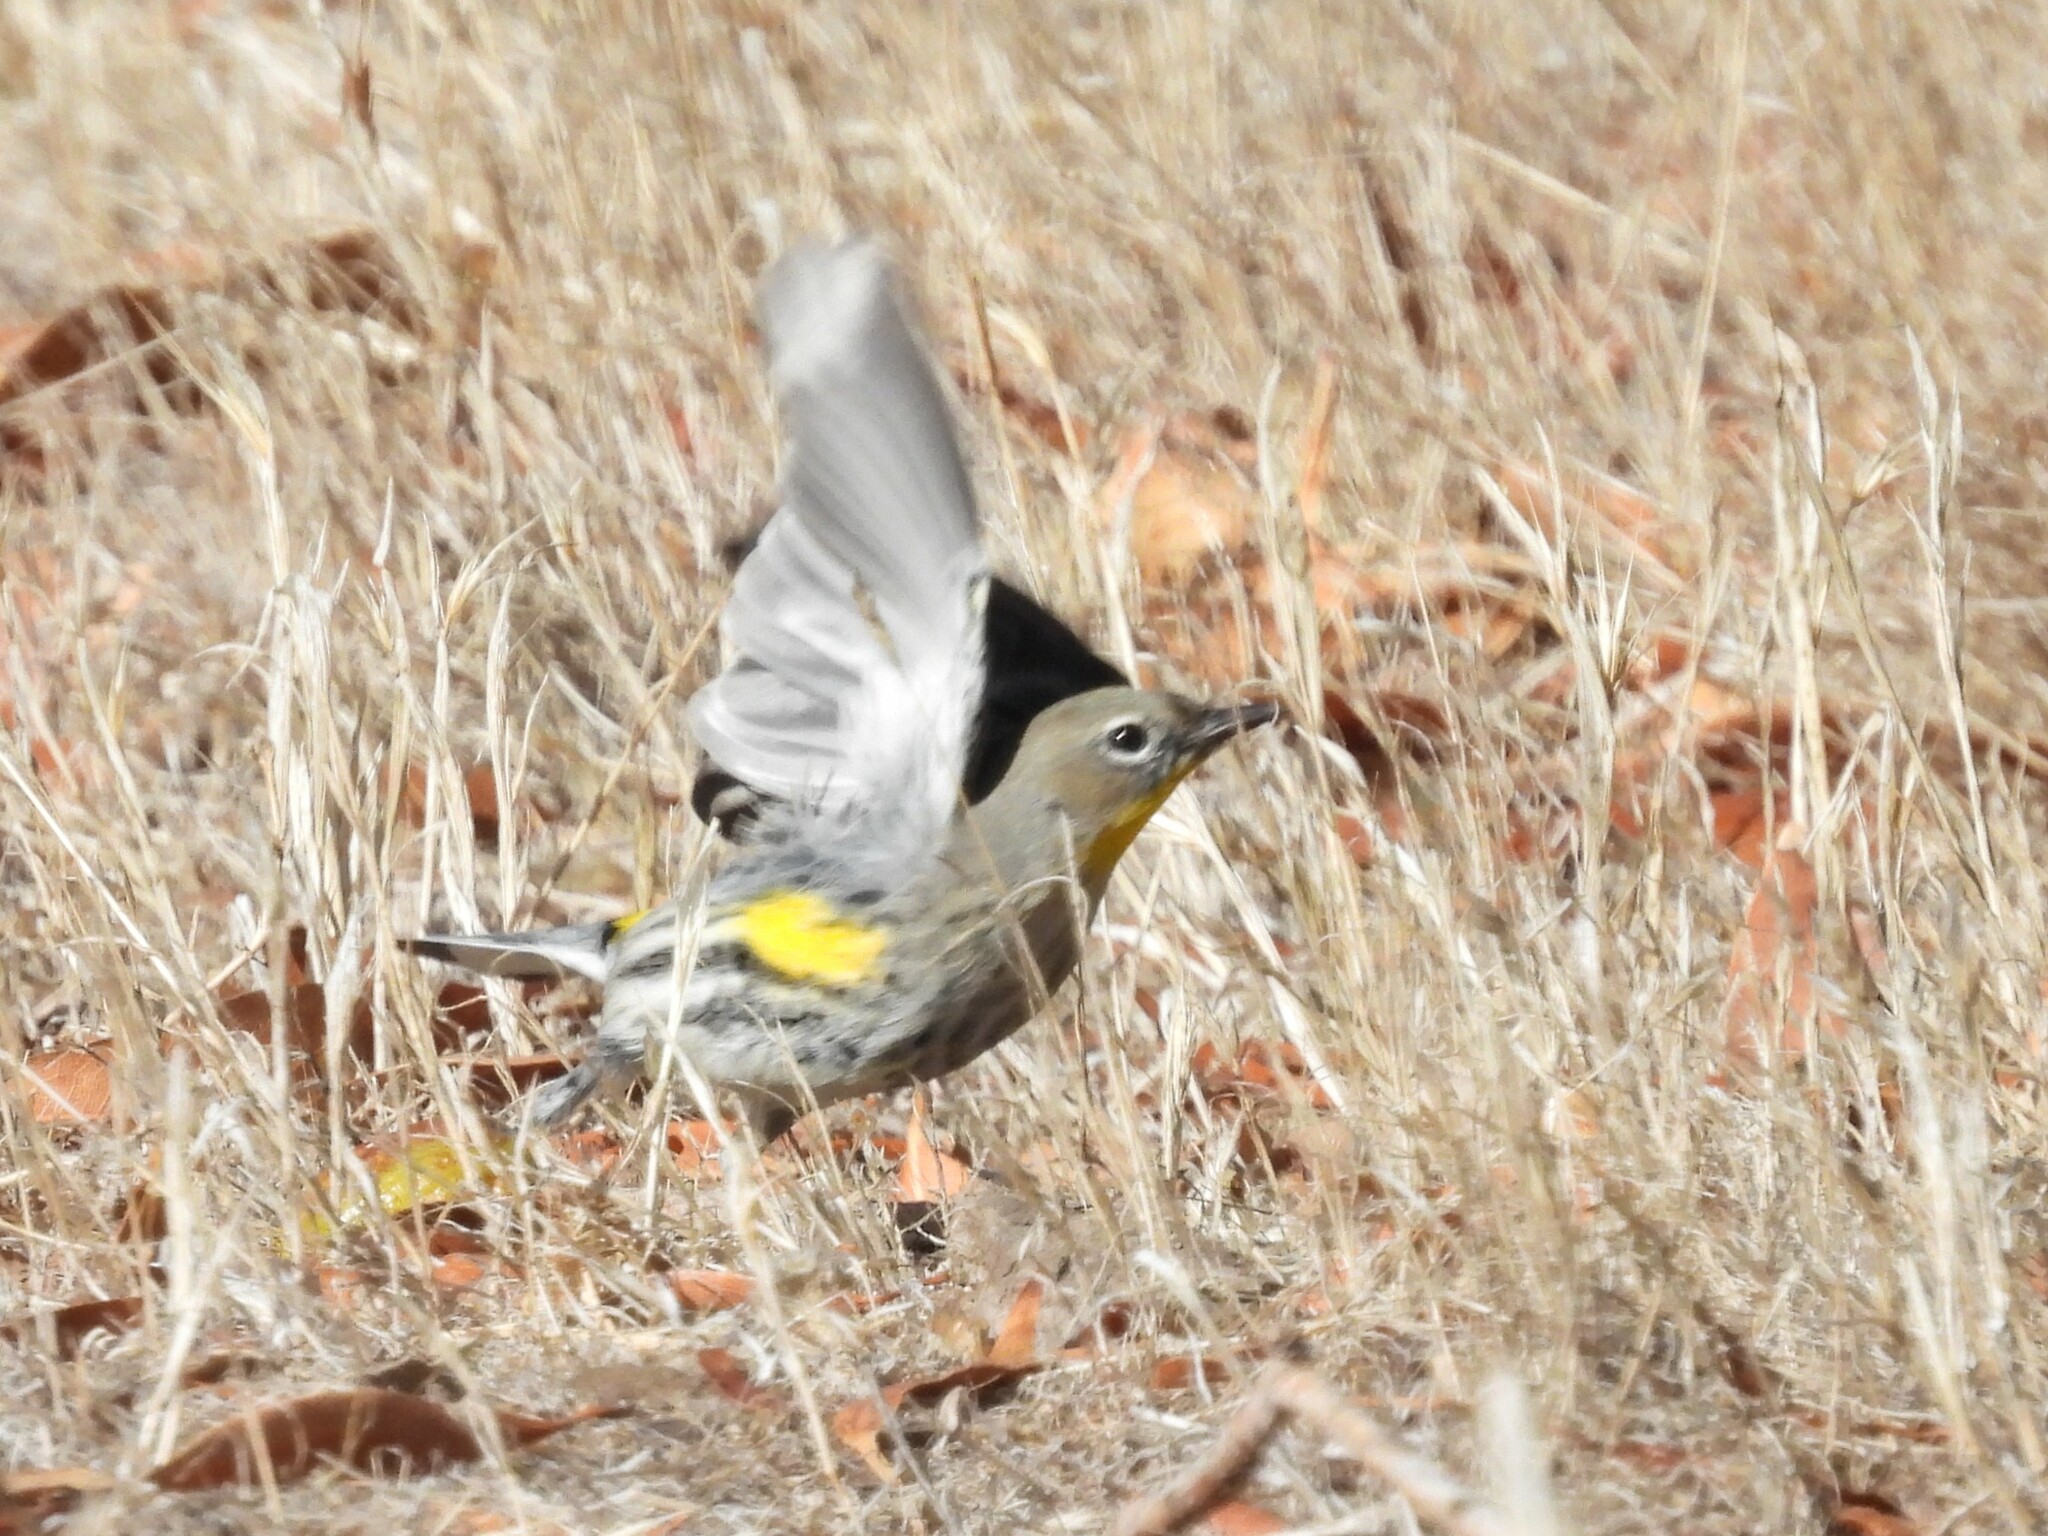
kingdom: Animalia
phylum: Chordata
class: Aves
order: Passeriformes
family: Parulidae
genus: Setophaga
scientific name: Setophaga coronata
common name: Myrtle warbler
